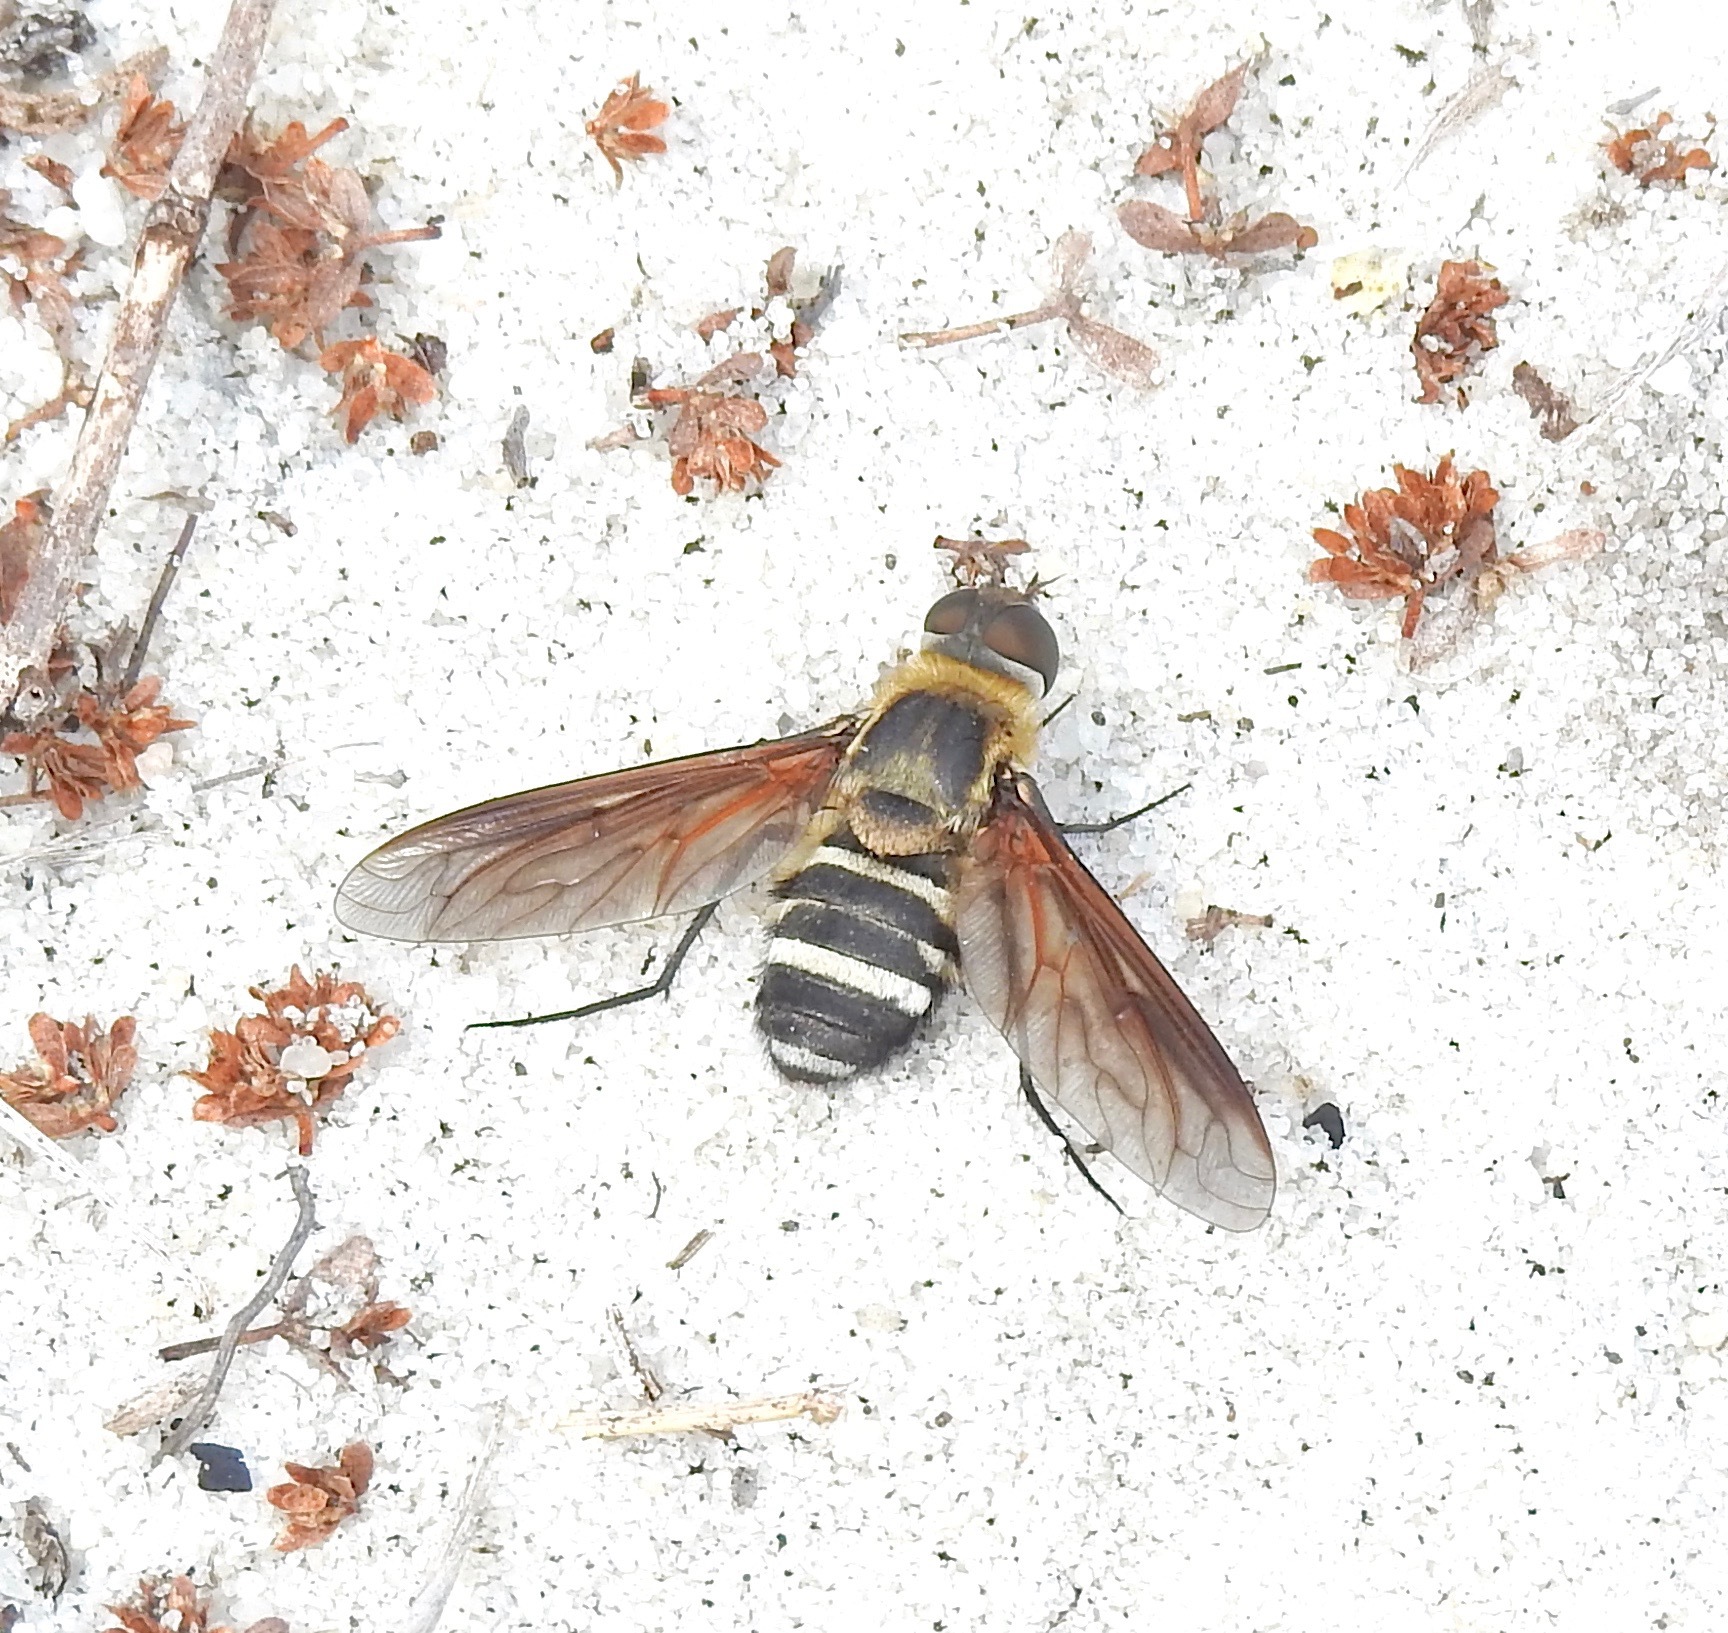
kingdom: Animalia
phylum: Arthropoda
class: Insecta
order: Diptera
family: Bombyliidae
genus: Exoprosopa
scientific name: Exoprosopa fasciata
